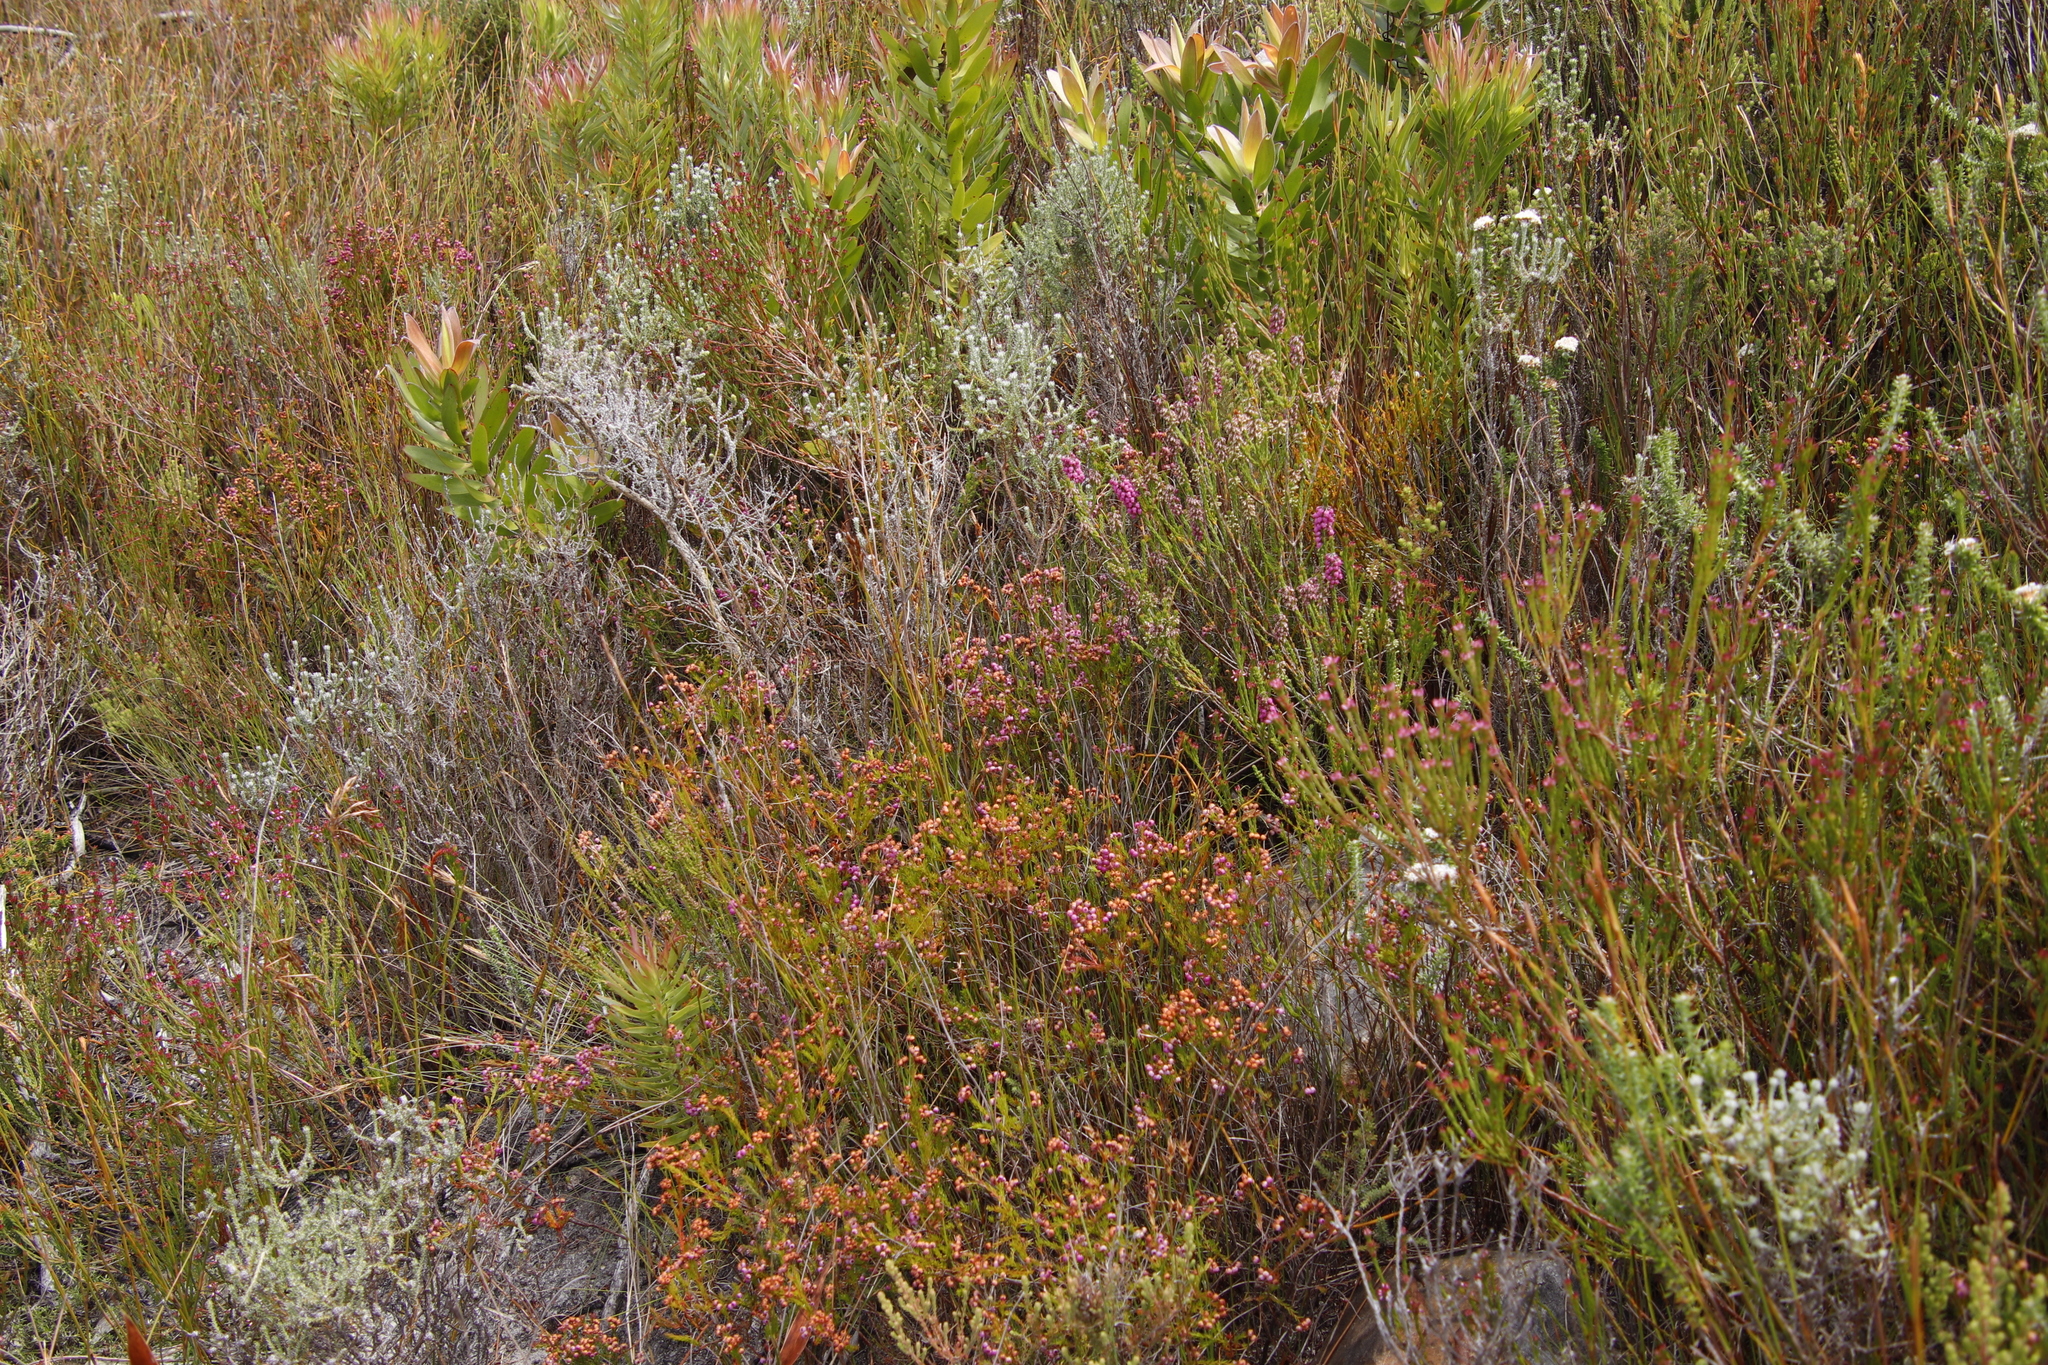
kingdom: Plantae
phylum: Tracheophyta
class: Magnoliopsida
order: Ericales
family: Ericaceae
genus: Erica
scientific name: Erica pulchella
